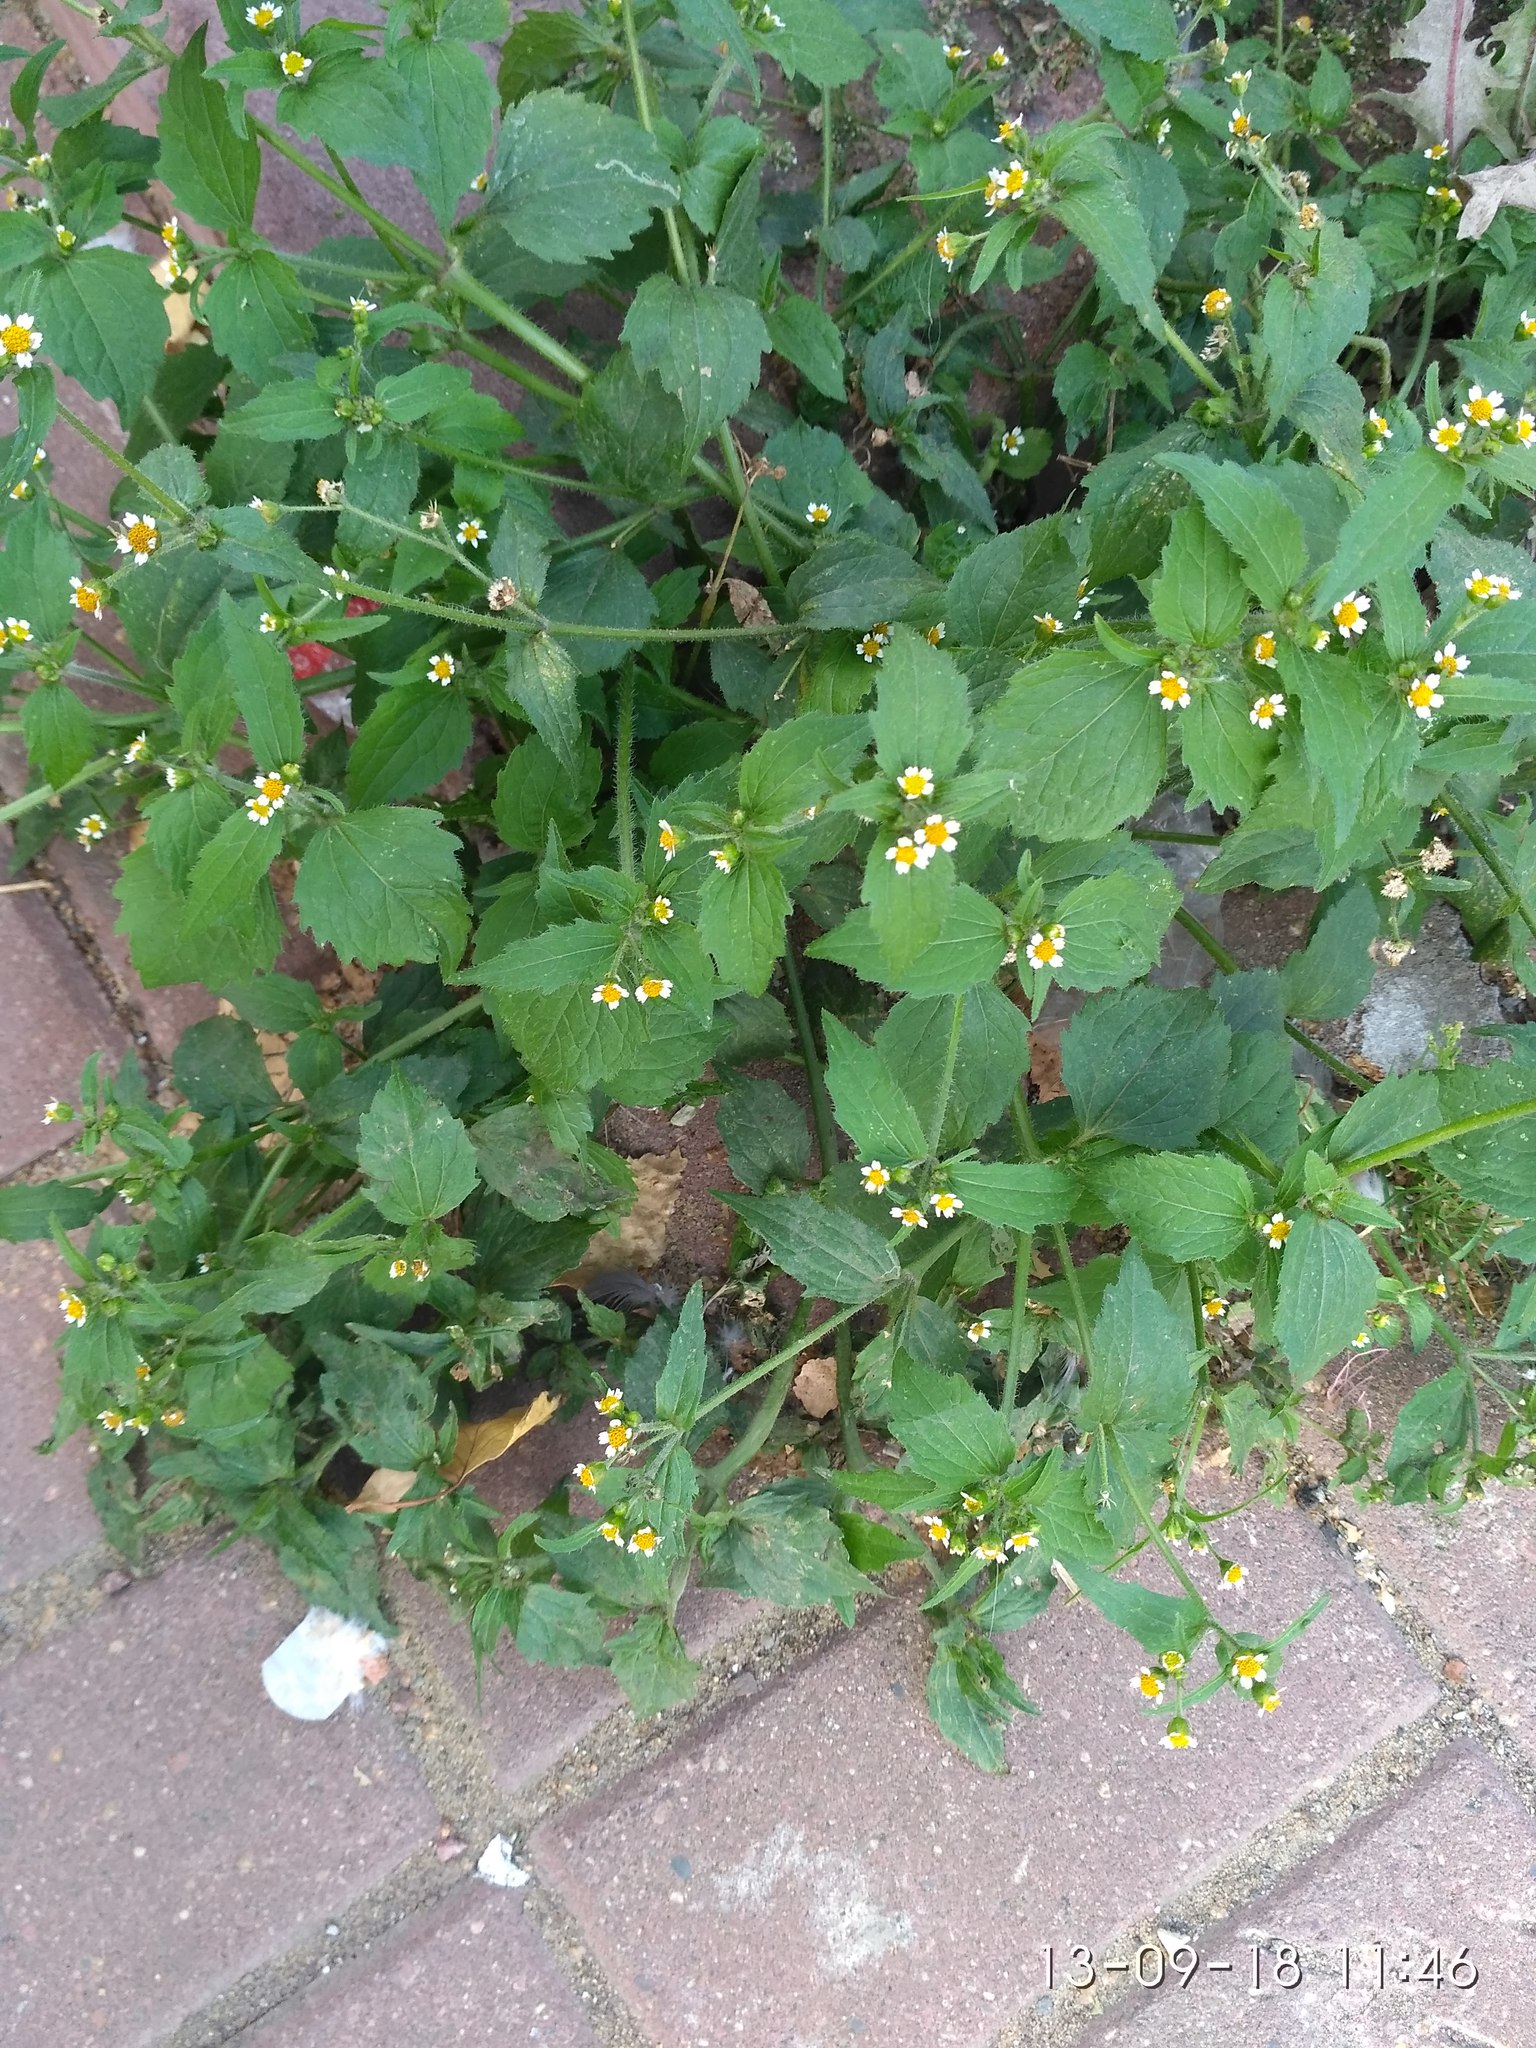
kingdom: Plantae
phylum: Tracheophyta
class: Magnoliopsida
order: Asterales
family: Asteraceae
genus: Galinsoga
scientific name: Galinsoga quadriradiata
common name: Shaggy soldier
